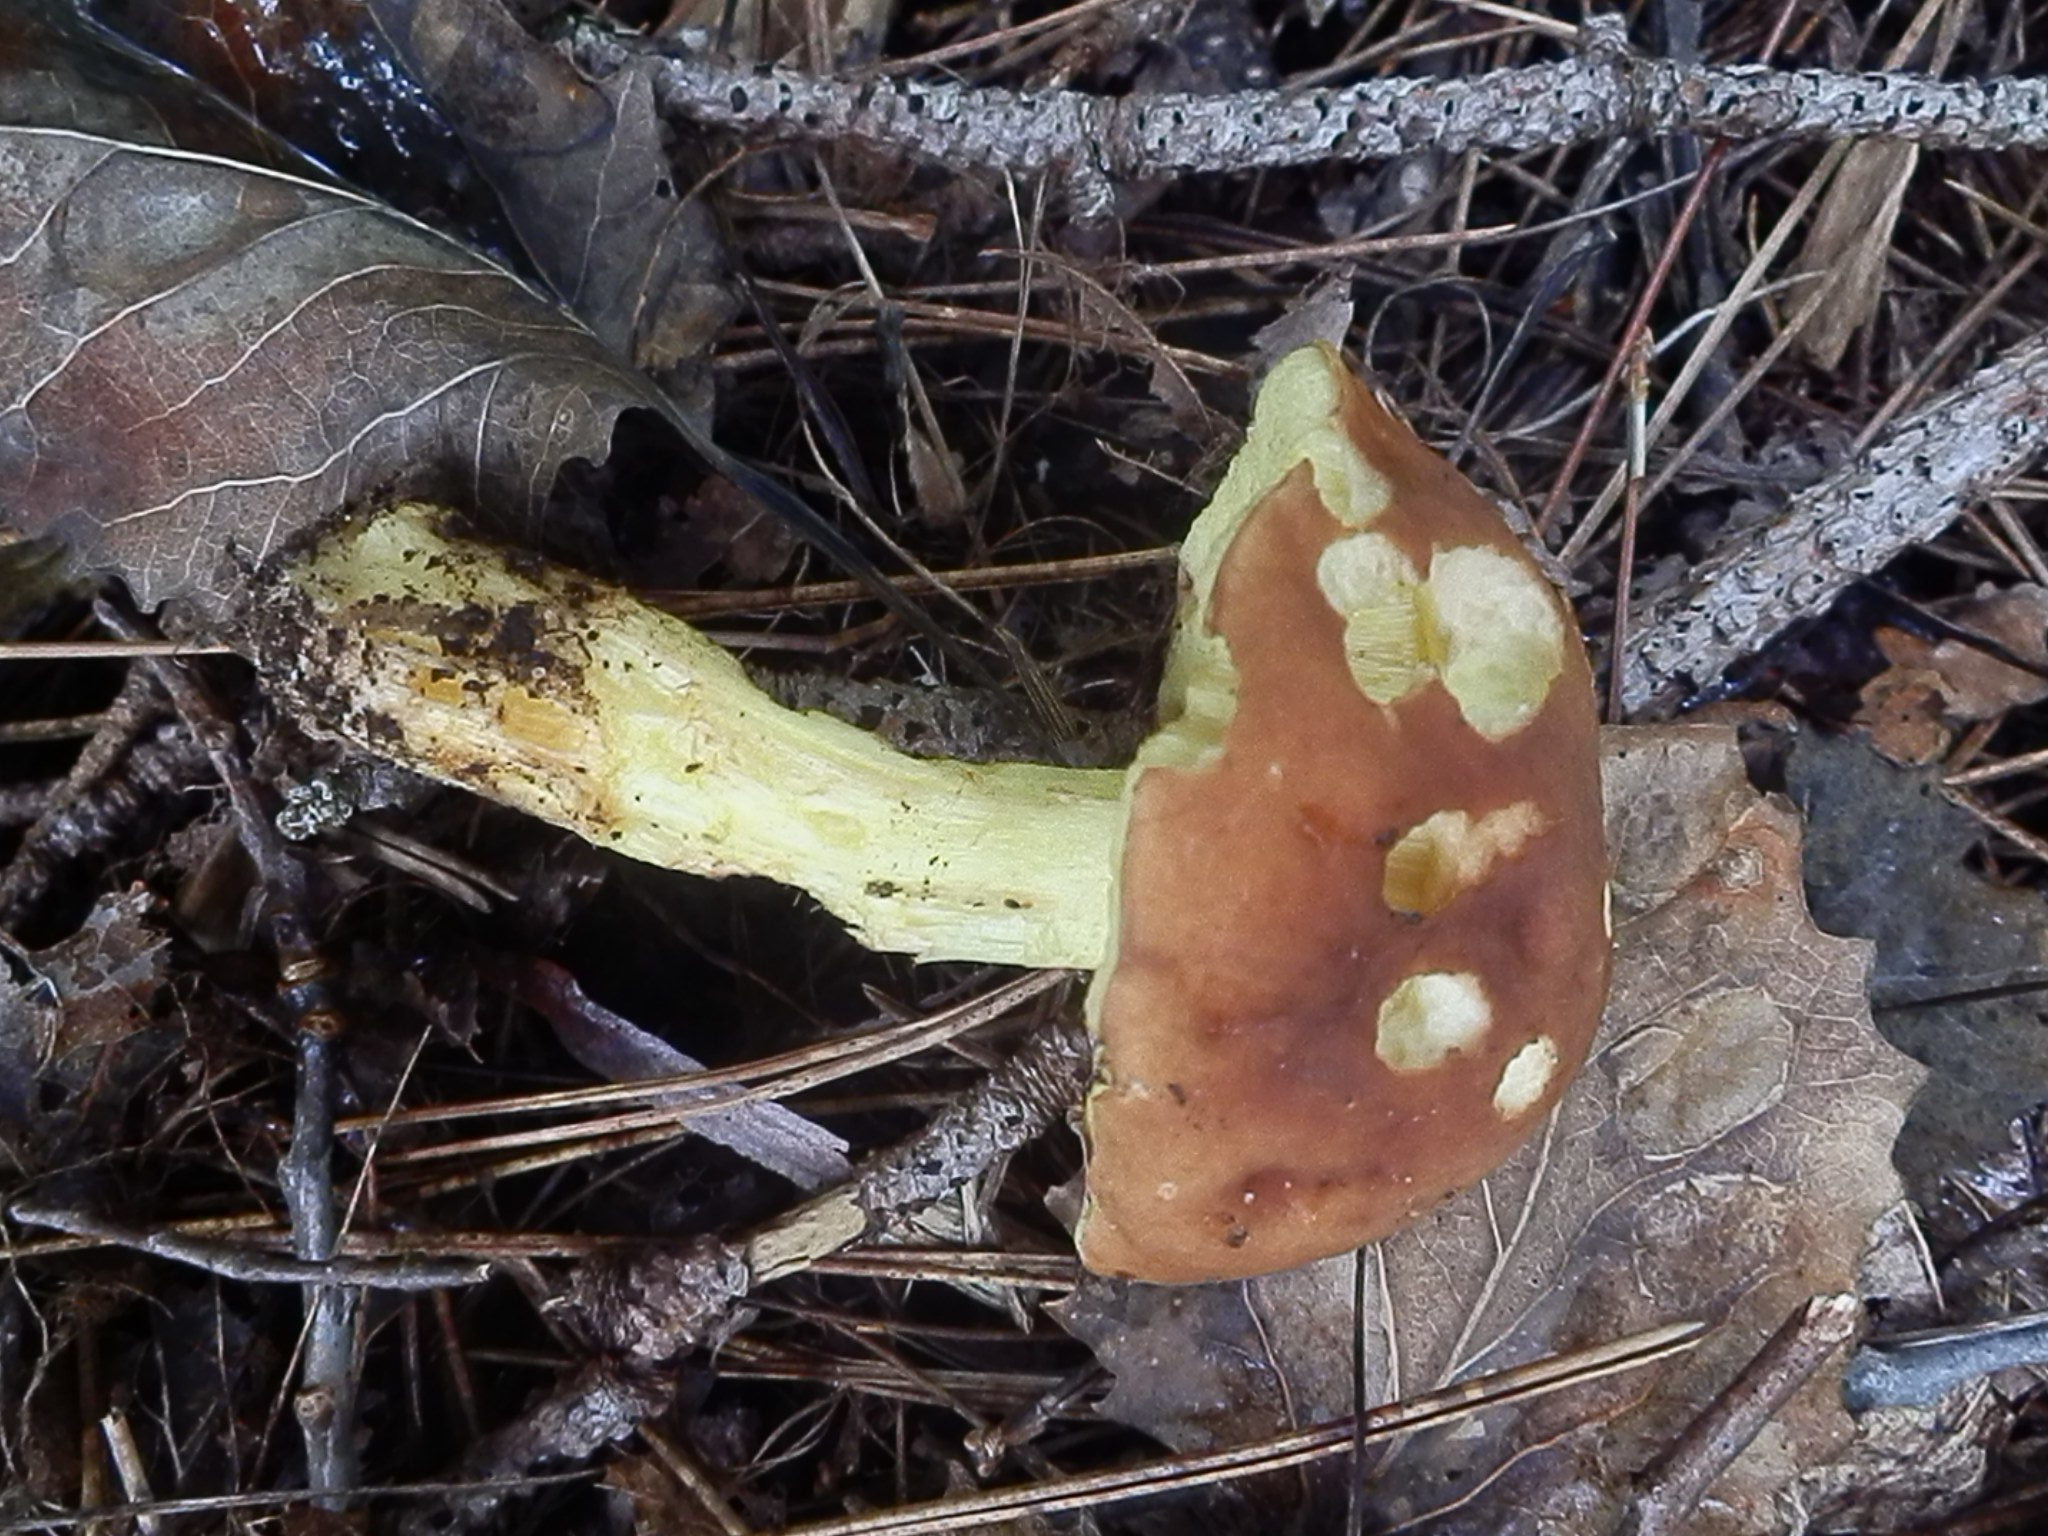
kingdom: Fungi
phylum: Basidiomycota
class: Agaricomycetes
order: Boletales
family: Boletaceae
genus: Hemileccinum
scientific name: Hemileccinum subglabripes
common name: Smoothish-stemmed bolete
